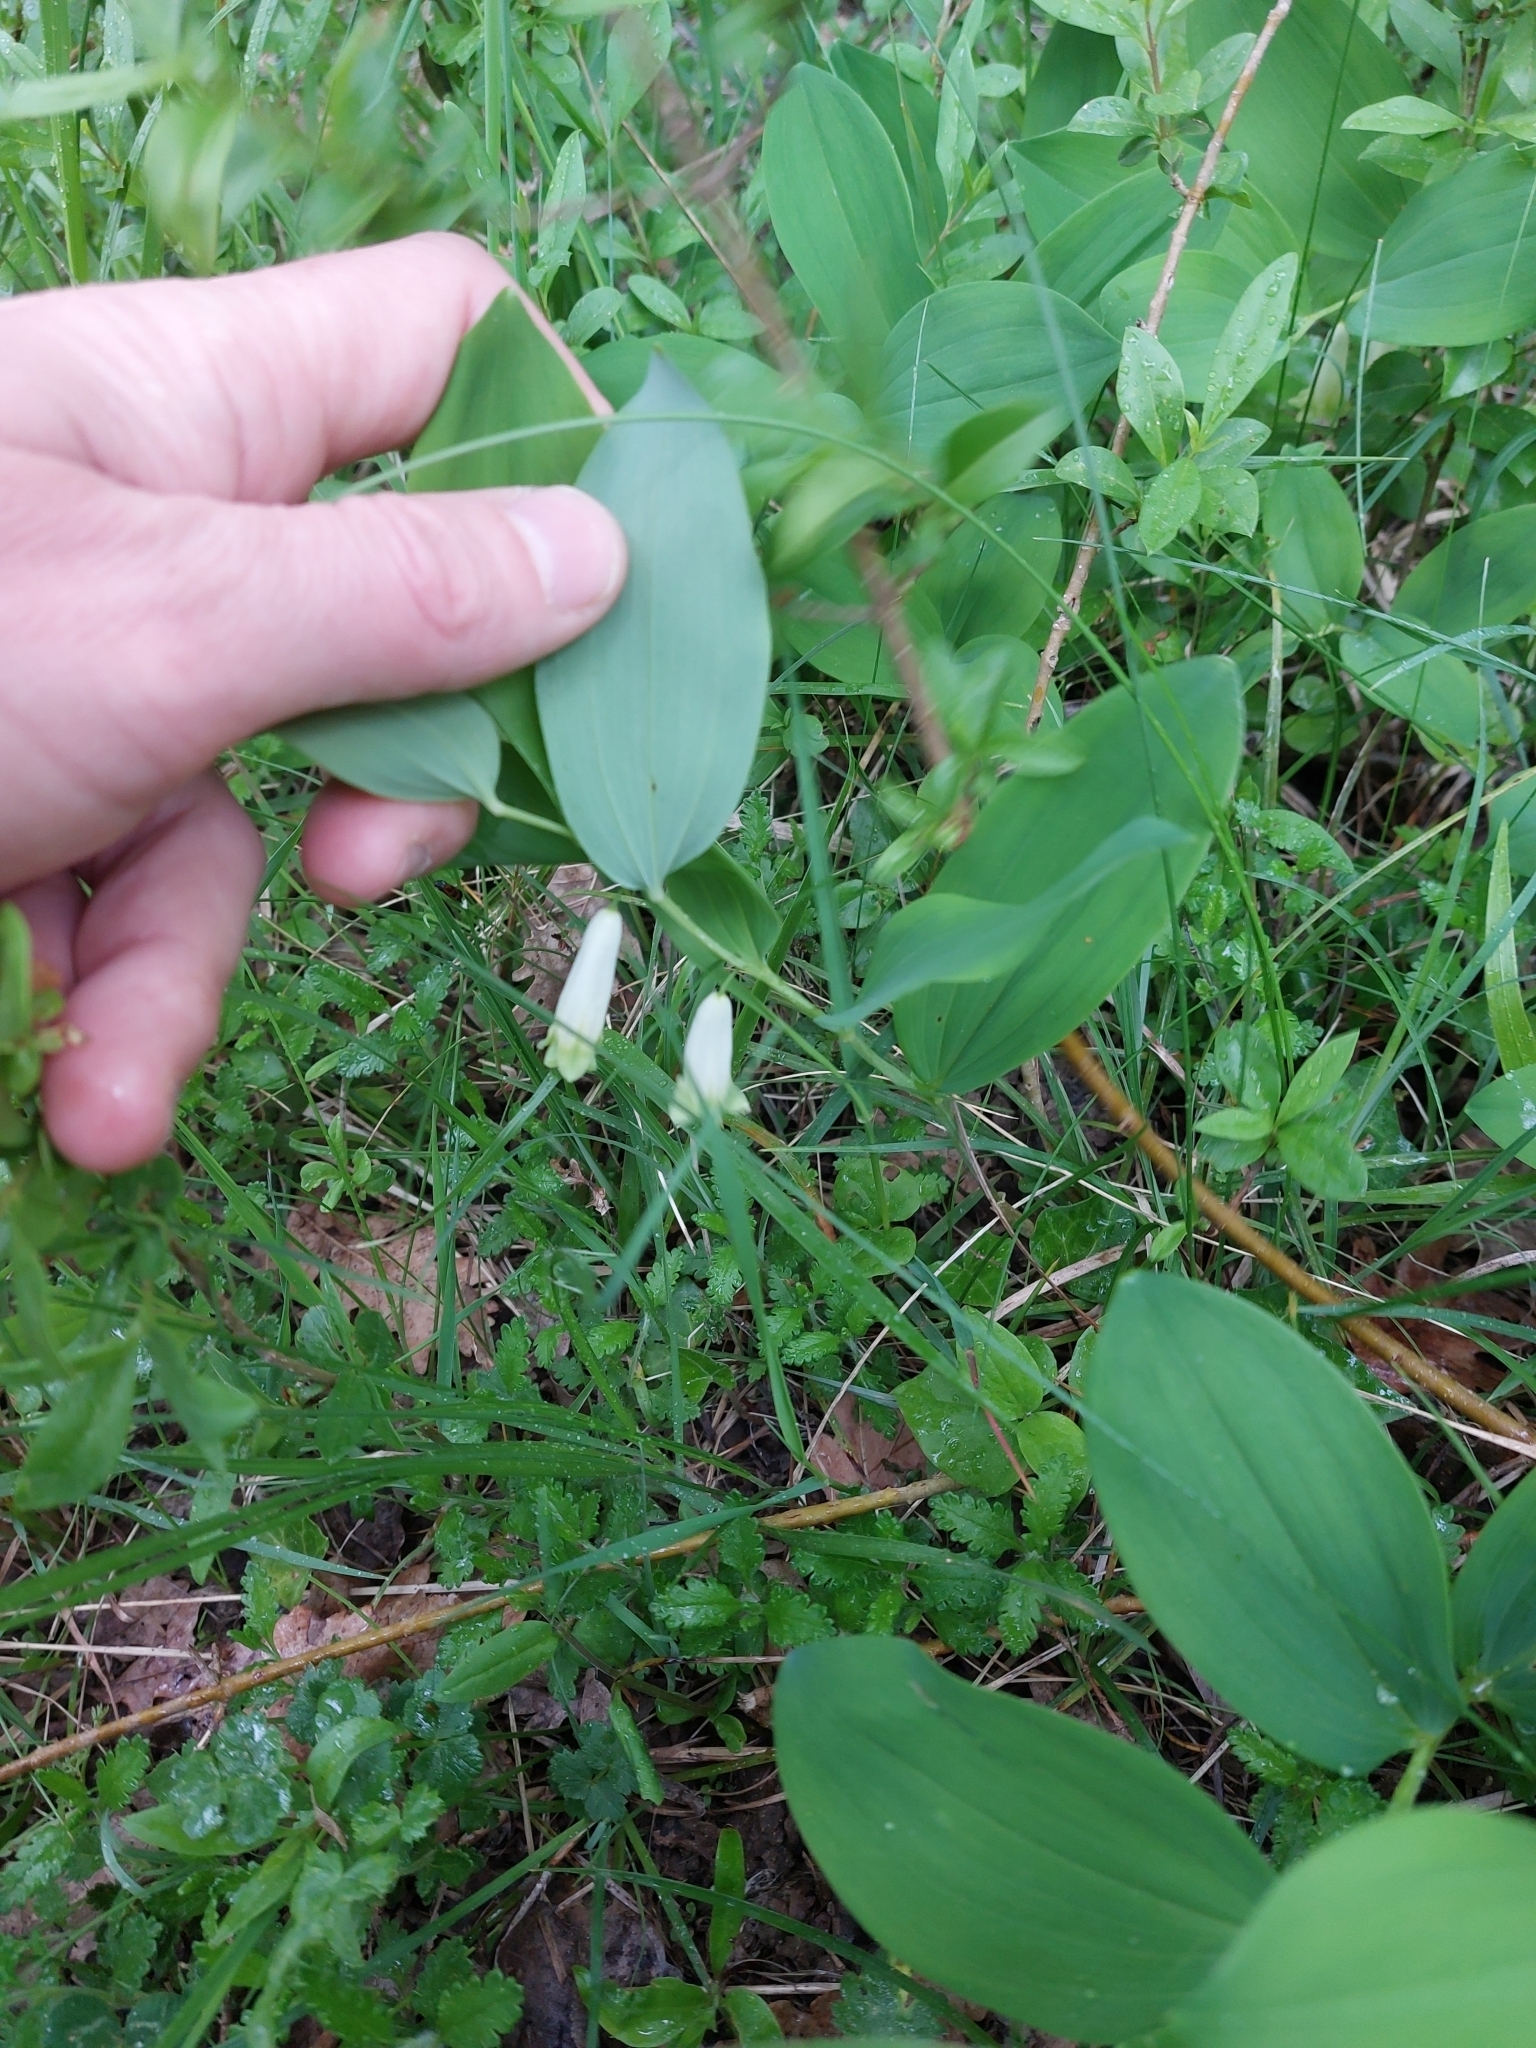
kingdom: Plantae
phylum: Tracheophyta
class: Liliopsida
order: Asparagales
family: Asparagaceae
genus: Polygonatum
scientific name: Polygonatum odoratum
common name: Angular solomon's-seal
